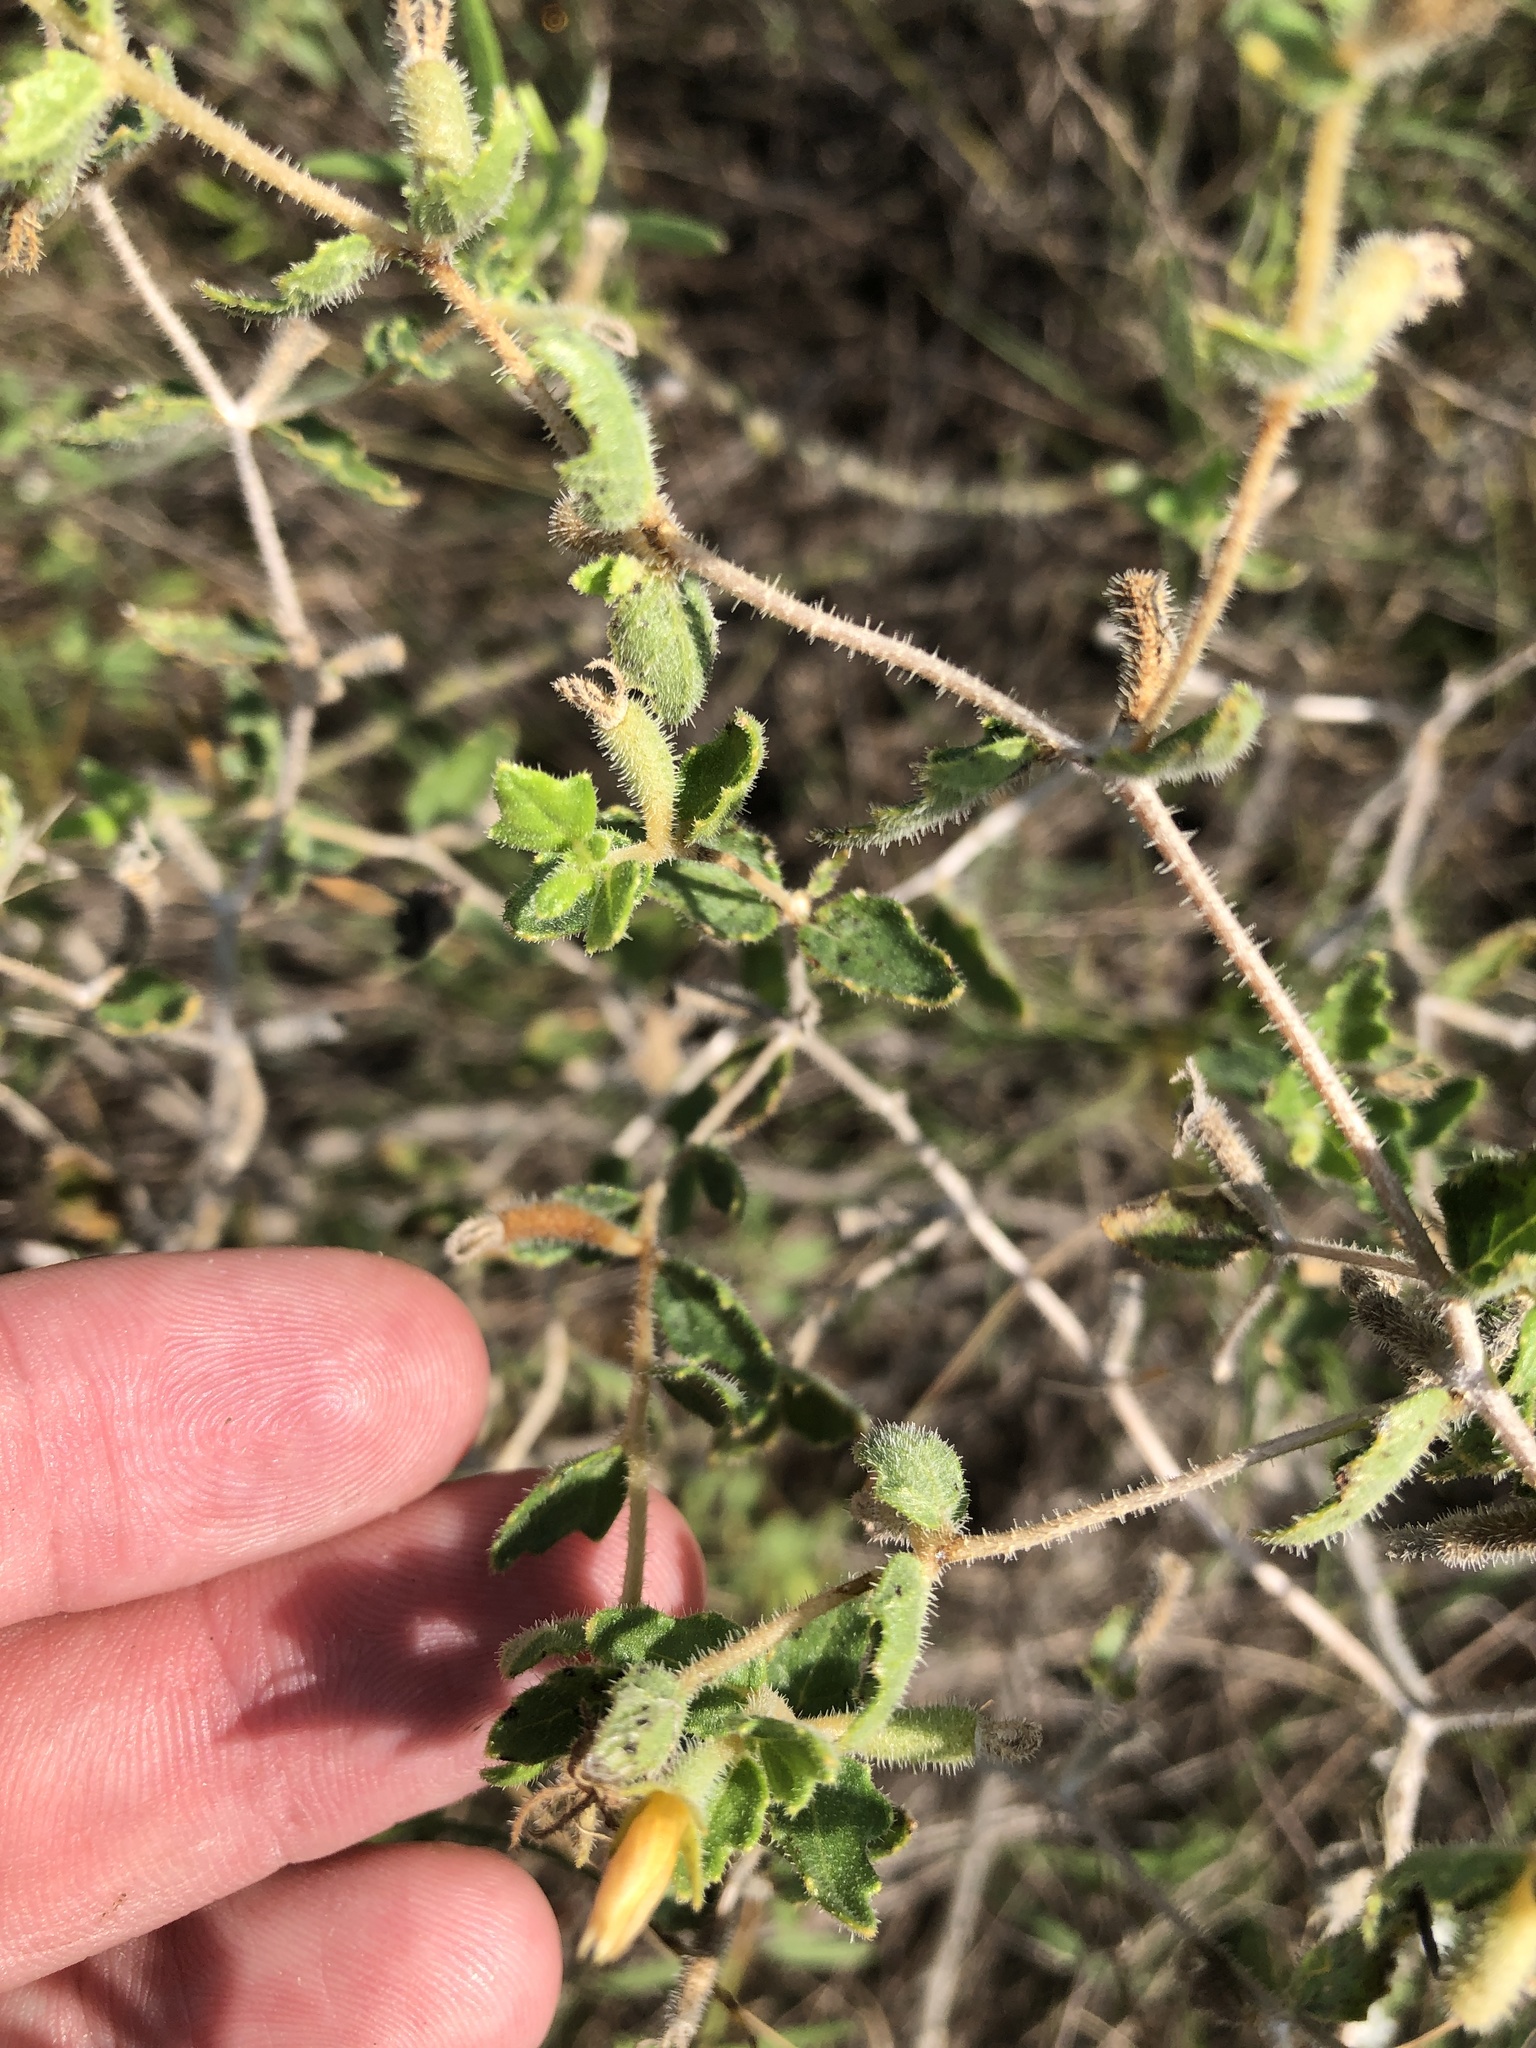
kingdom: Plantae
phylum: Tracheophyta
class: Magnoliopsida
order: Cornales
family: Loasaceae
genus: Mentzelia
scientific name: Mentzelia oligosperma
